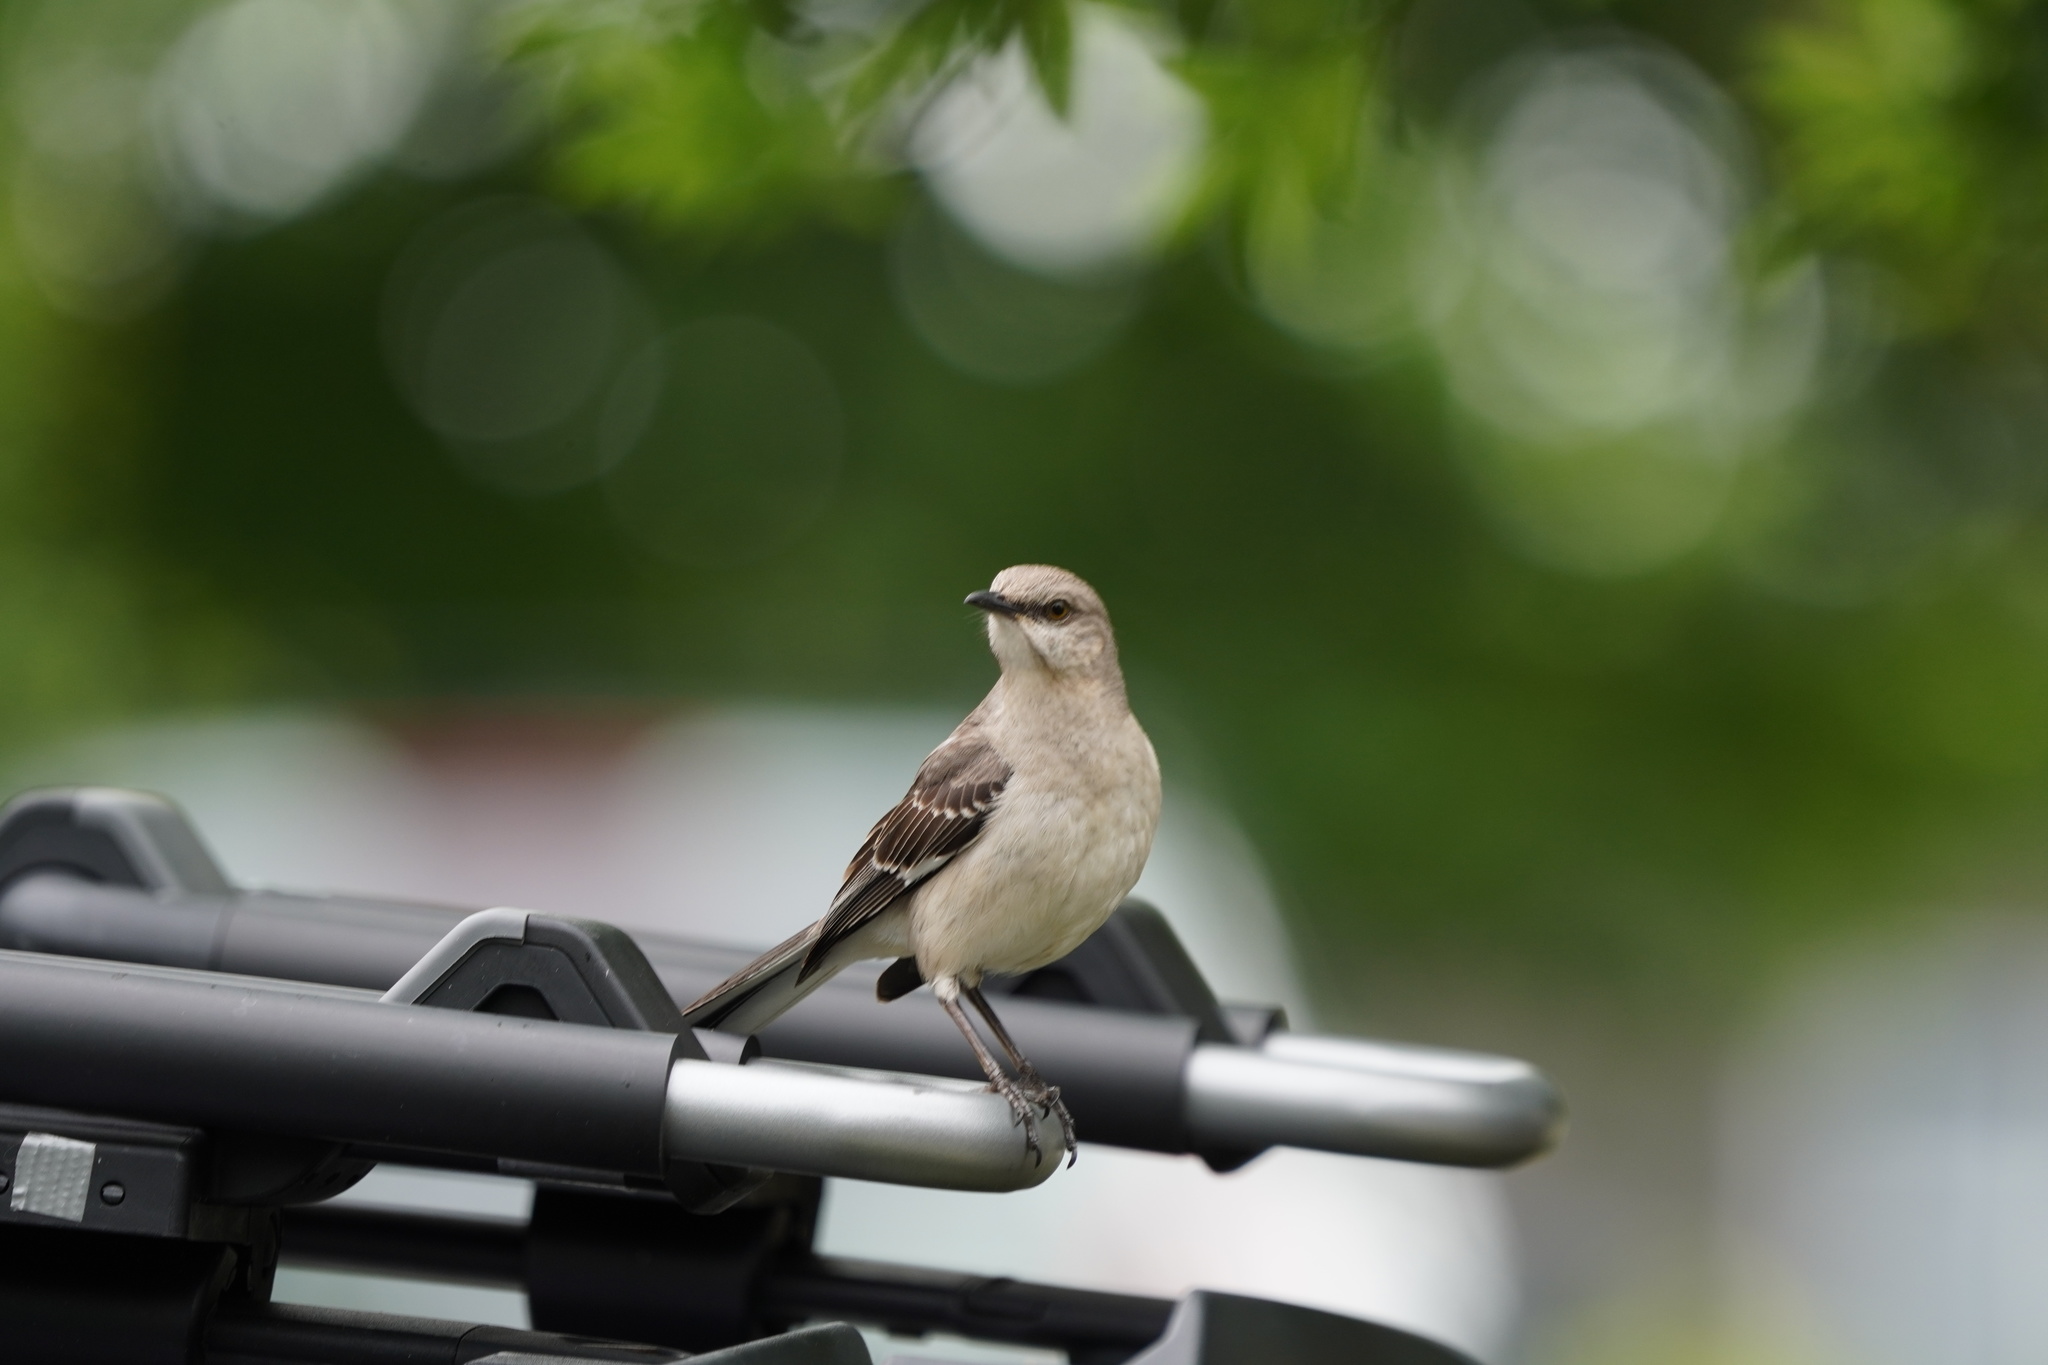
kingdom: Animalia
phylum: Chordata
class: Aves
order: Passeriformes
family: Mimidae
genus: Mimus
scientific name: Mimus polyglottos
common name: Northern mockingbird
